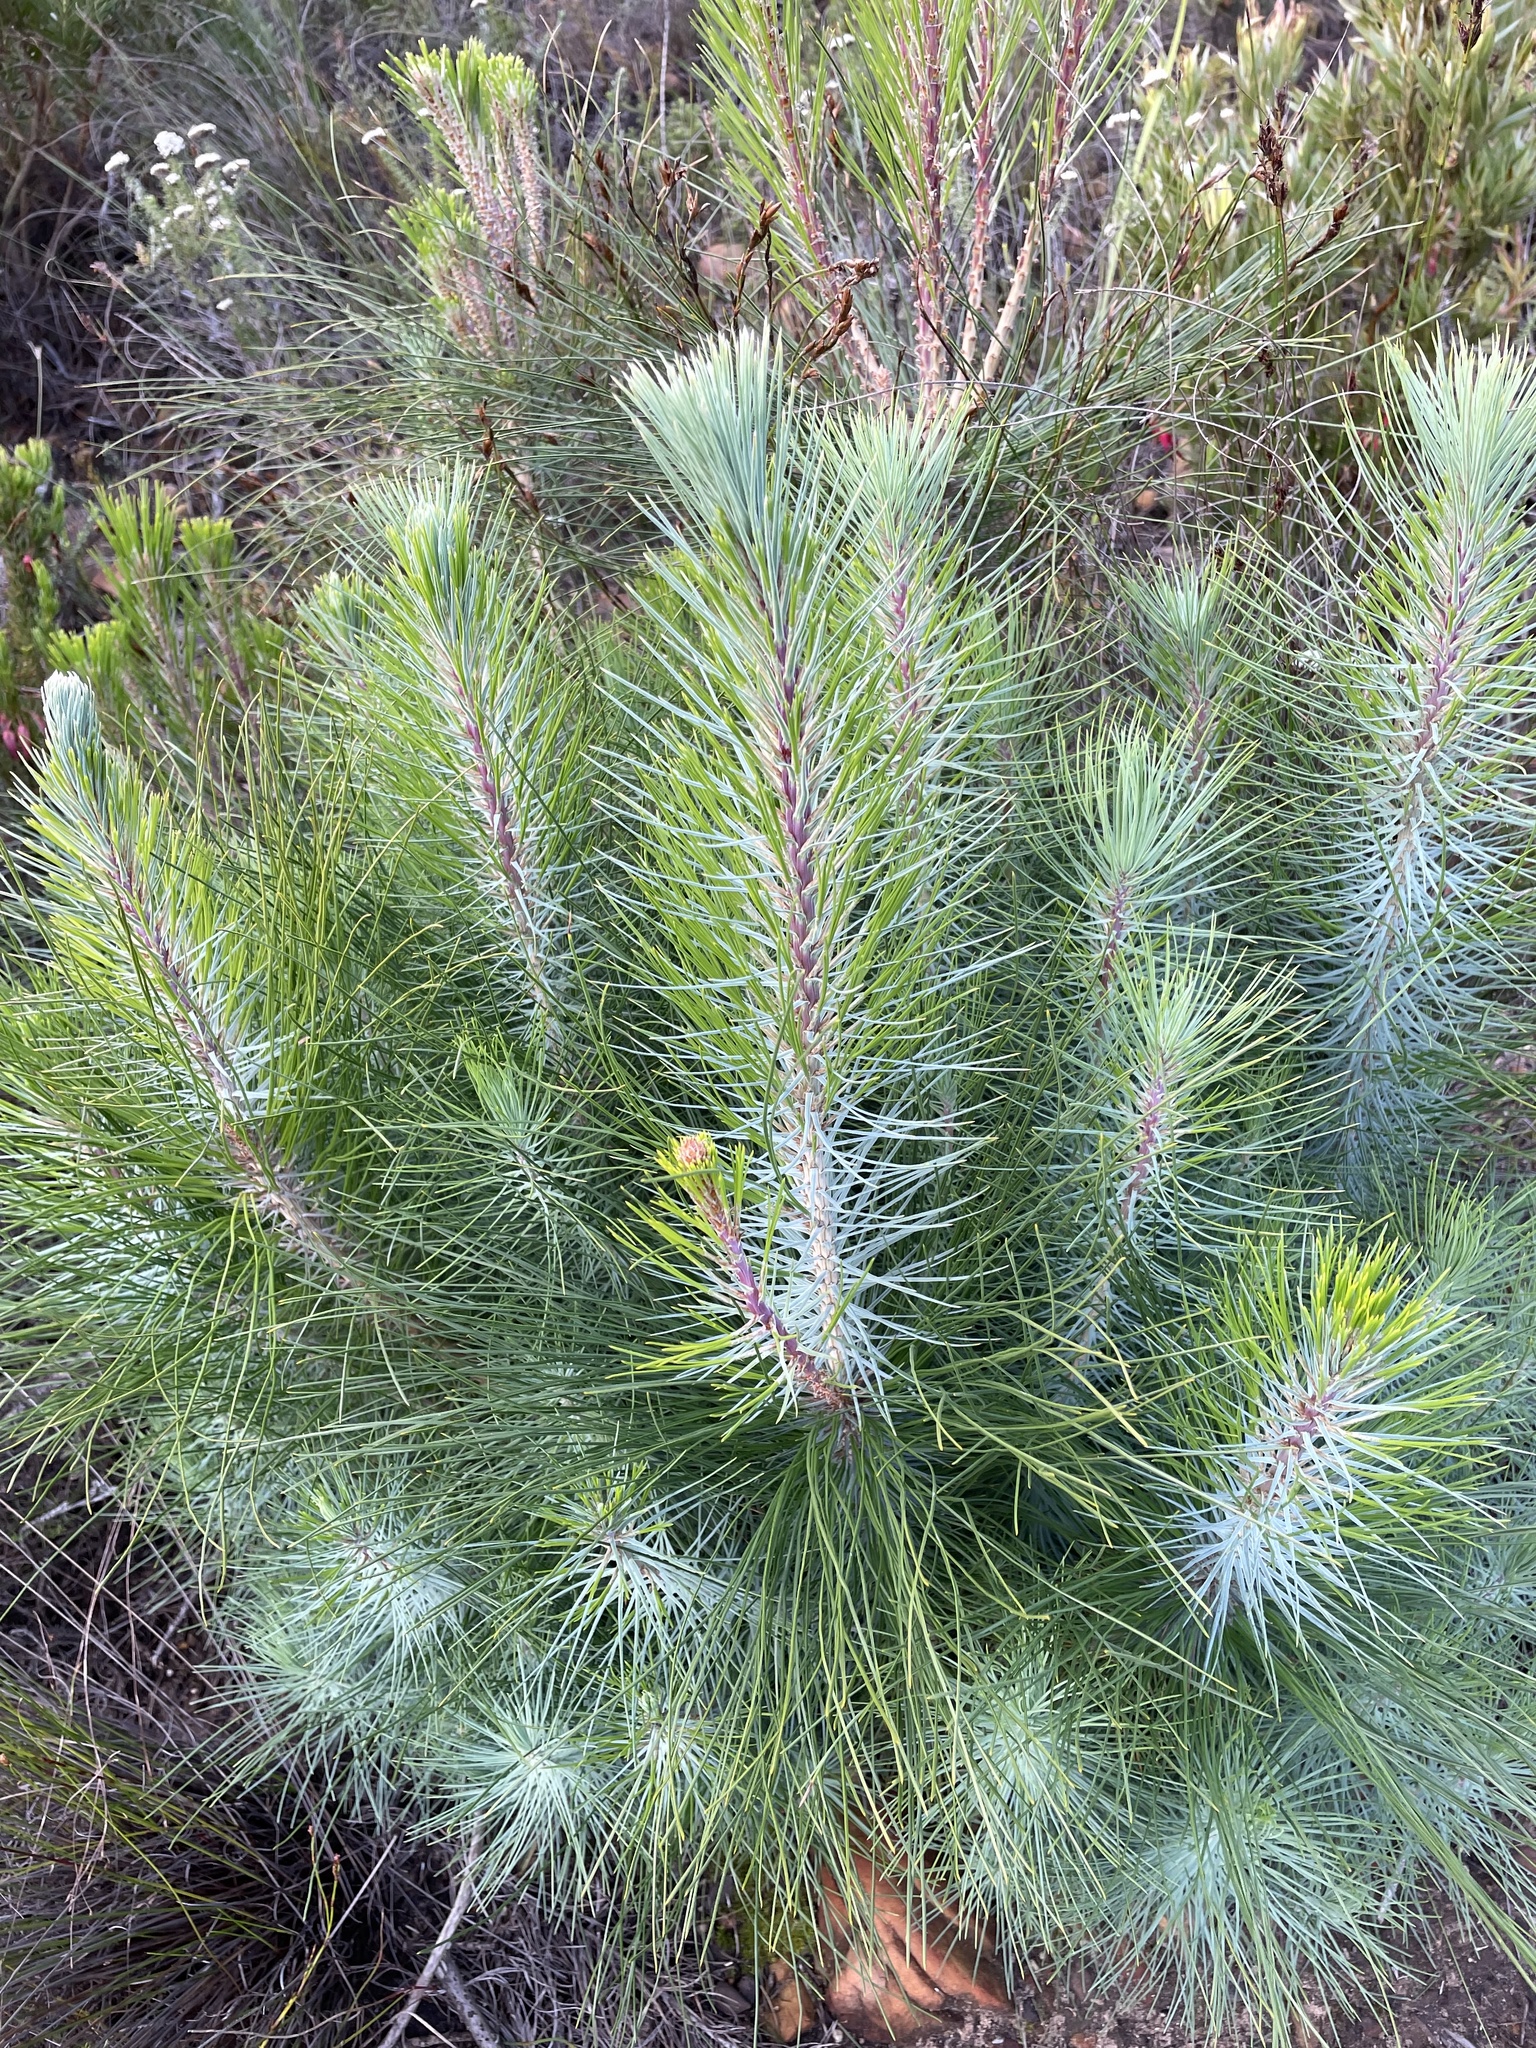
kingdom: Plantae
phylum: Tracheophyta
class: Pinopsida
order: Pinales
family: Pinaceae
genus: Pinus
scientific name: Pinus canariensis
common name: Canary islands pine
